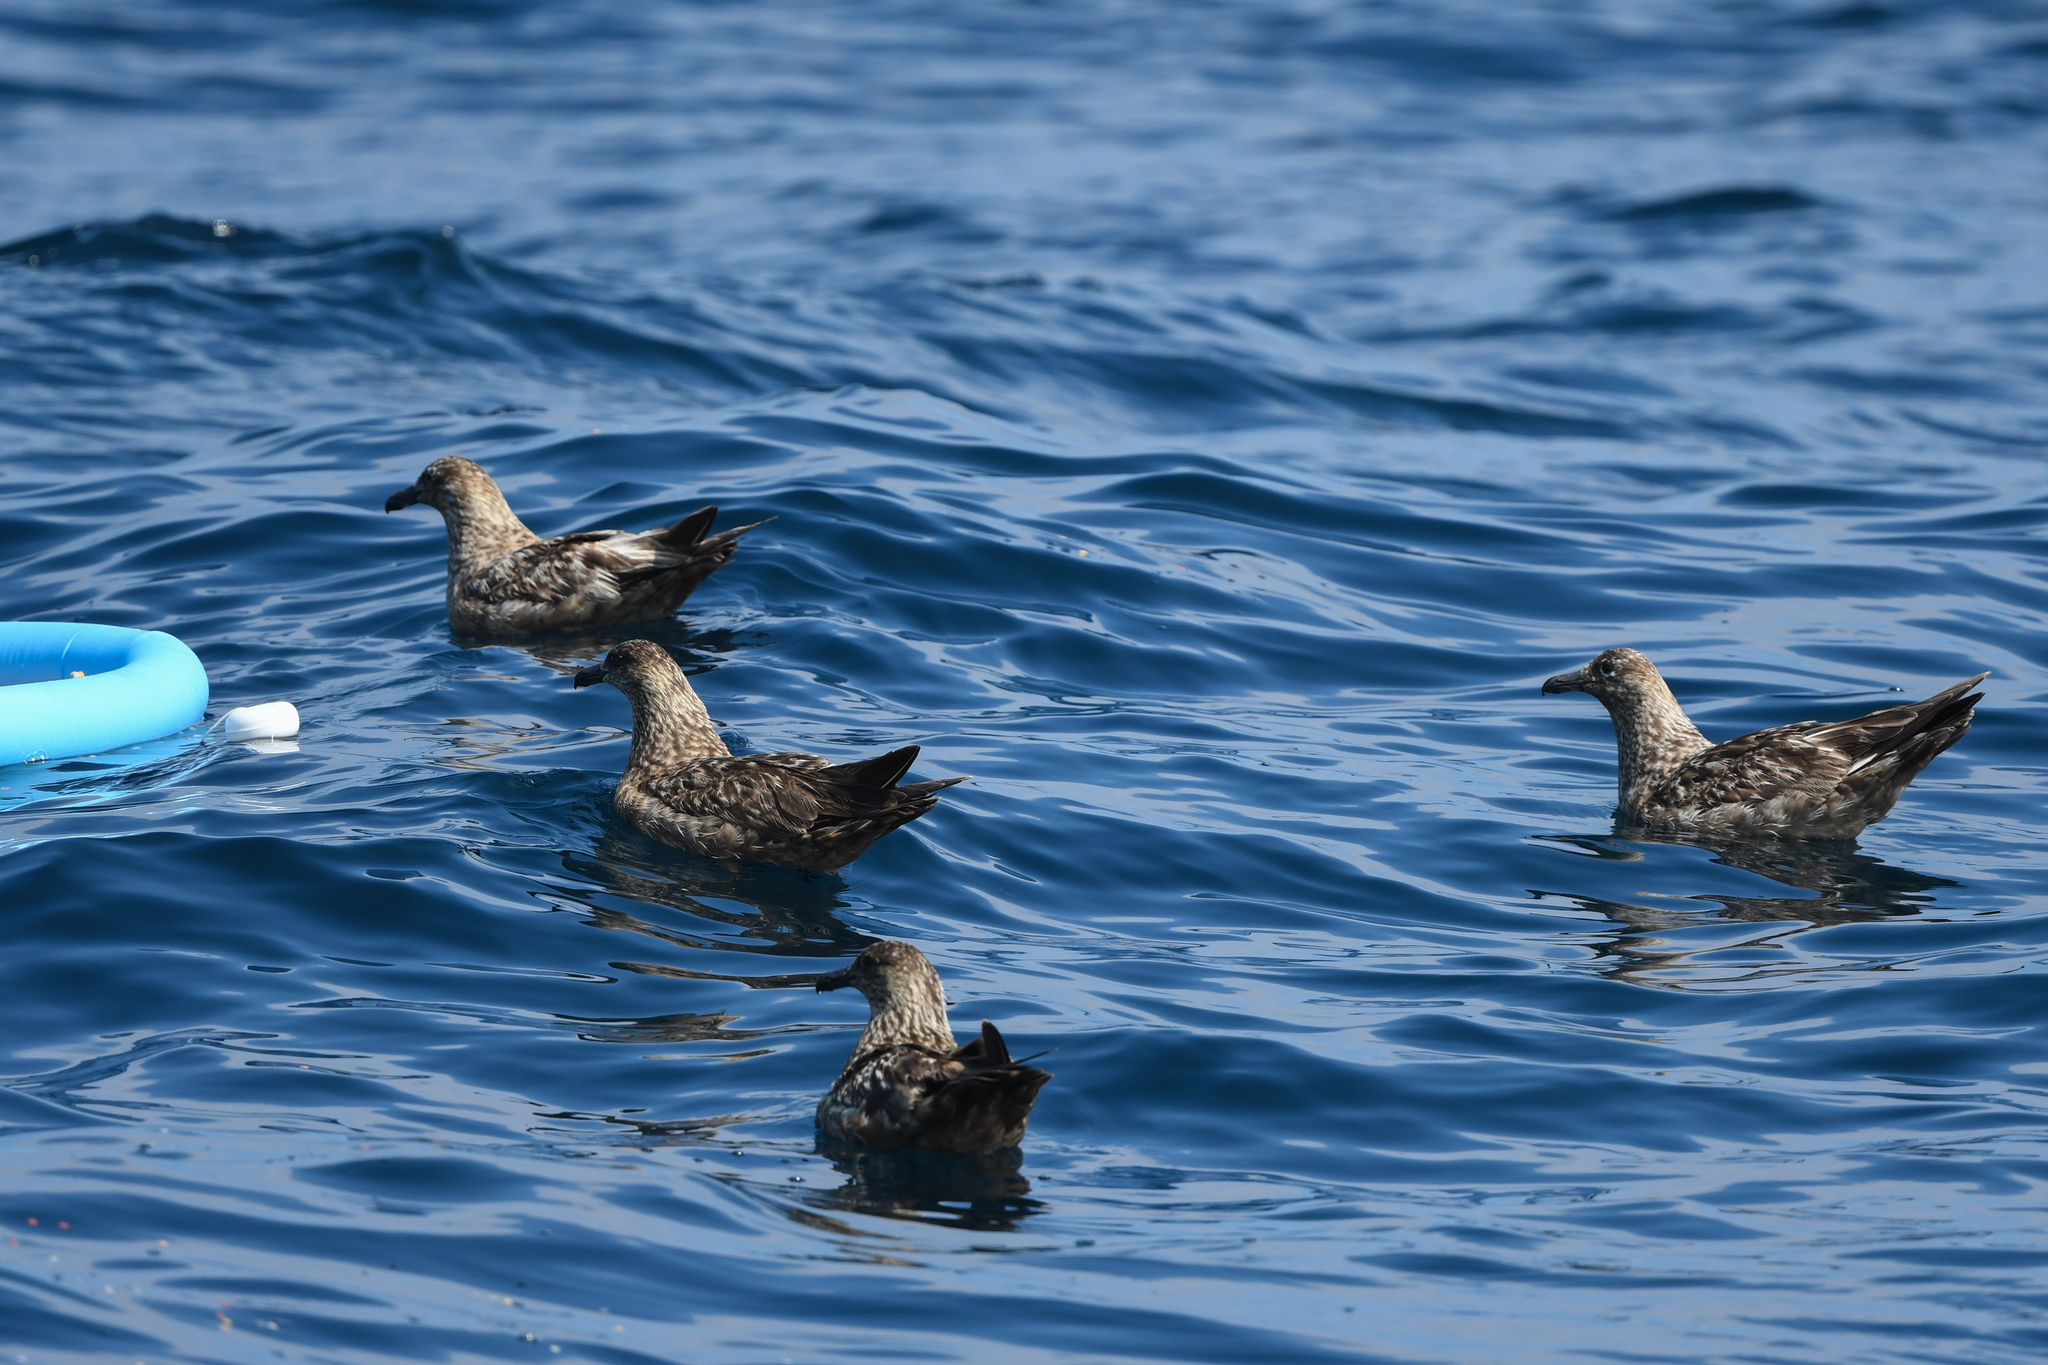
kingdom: Animalia
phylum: Chordata
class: Aves
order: Charadriiformes
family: Stercorariidae
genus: Stercorarius
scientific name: Stercorarius skua
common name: Great skua
